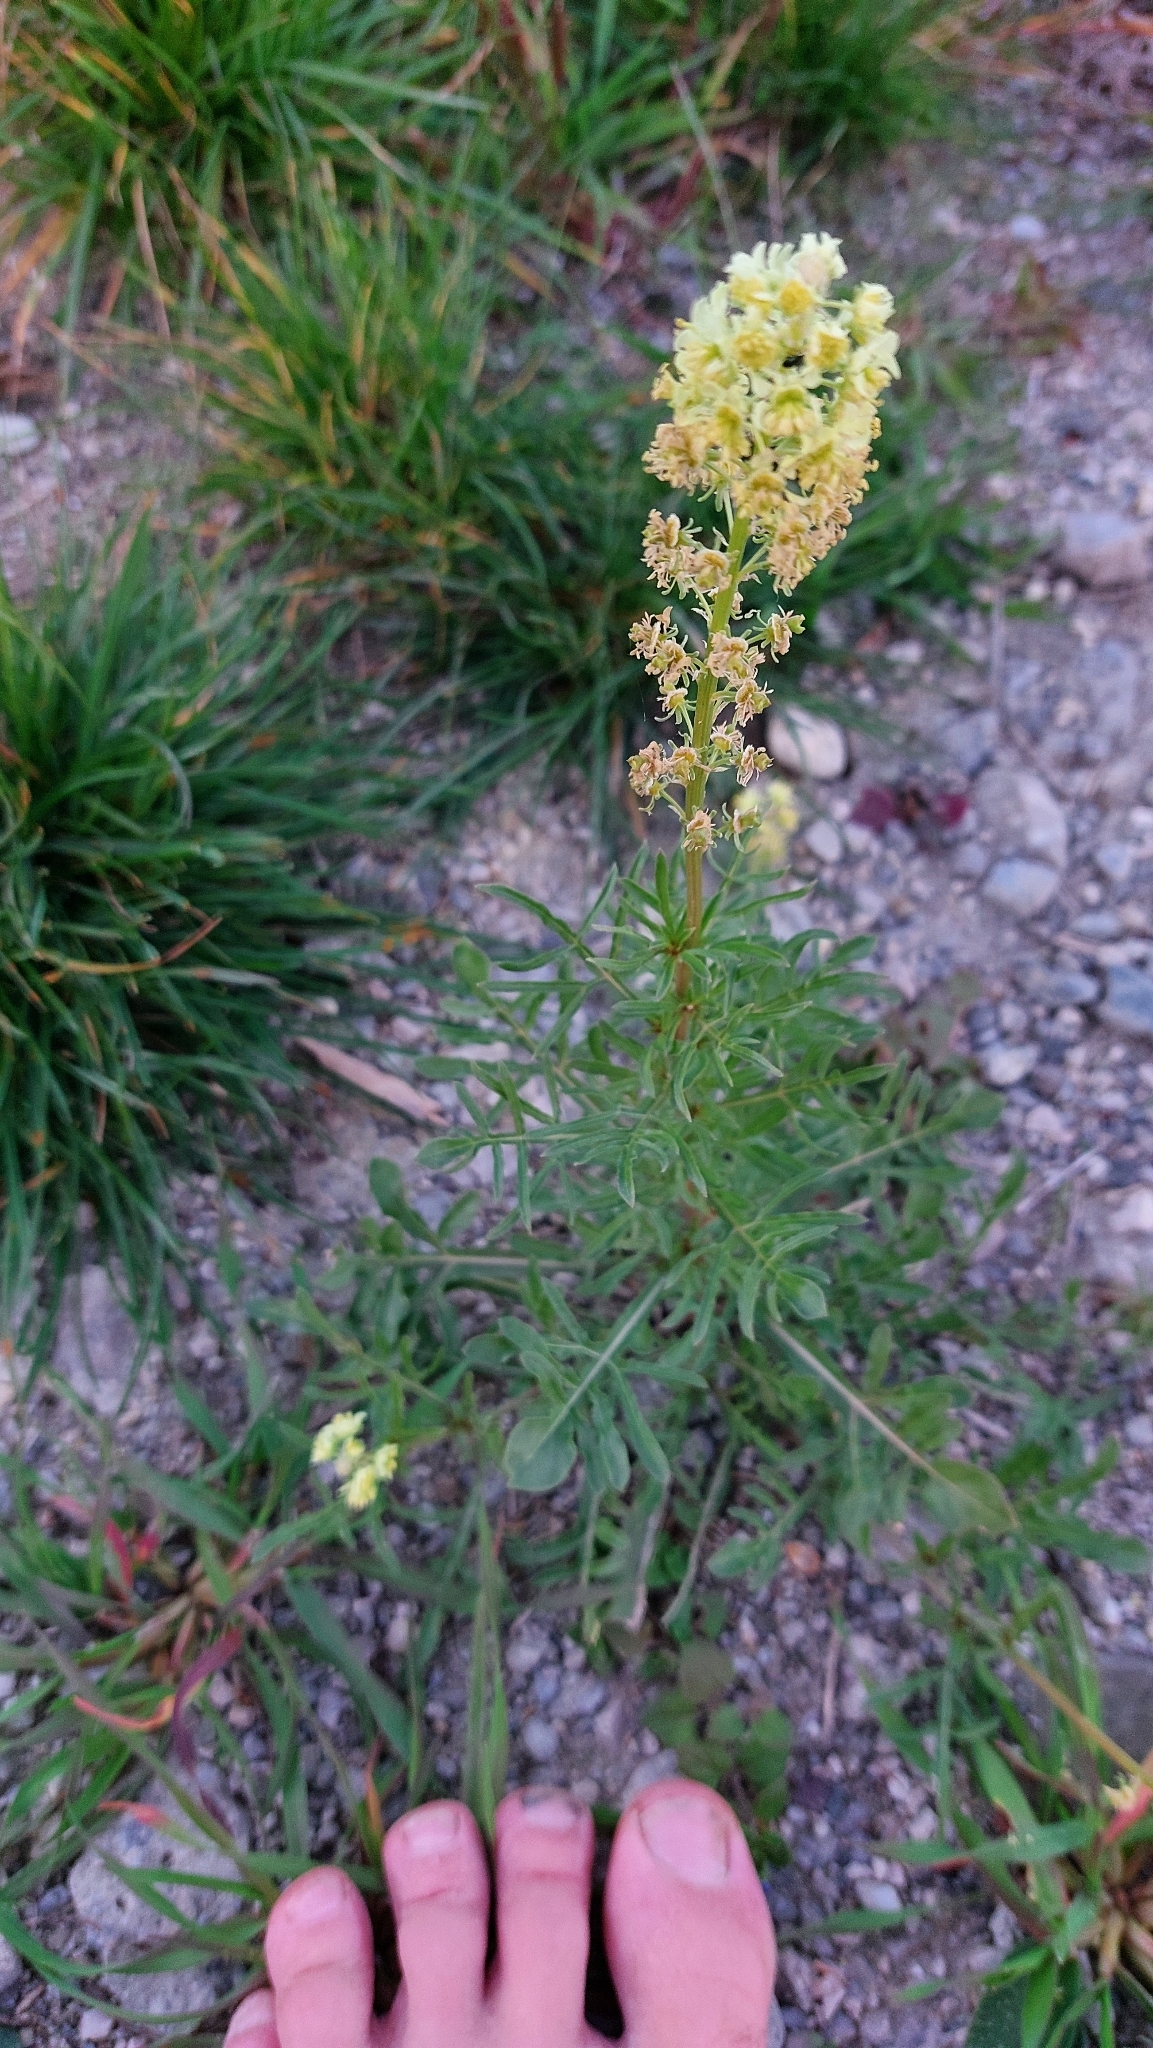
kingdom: Plantae
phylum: Tracheophyta
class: Magnoliopsida
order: Brassicales
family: Resedaceae
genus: Reseda
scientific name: Reseda lutea
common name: Wild mignonette
